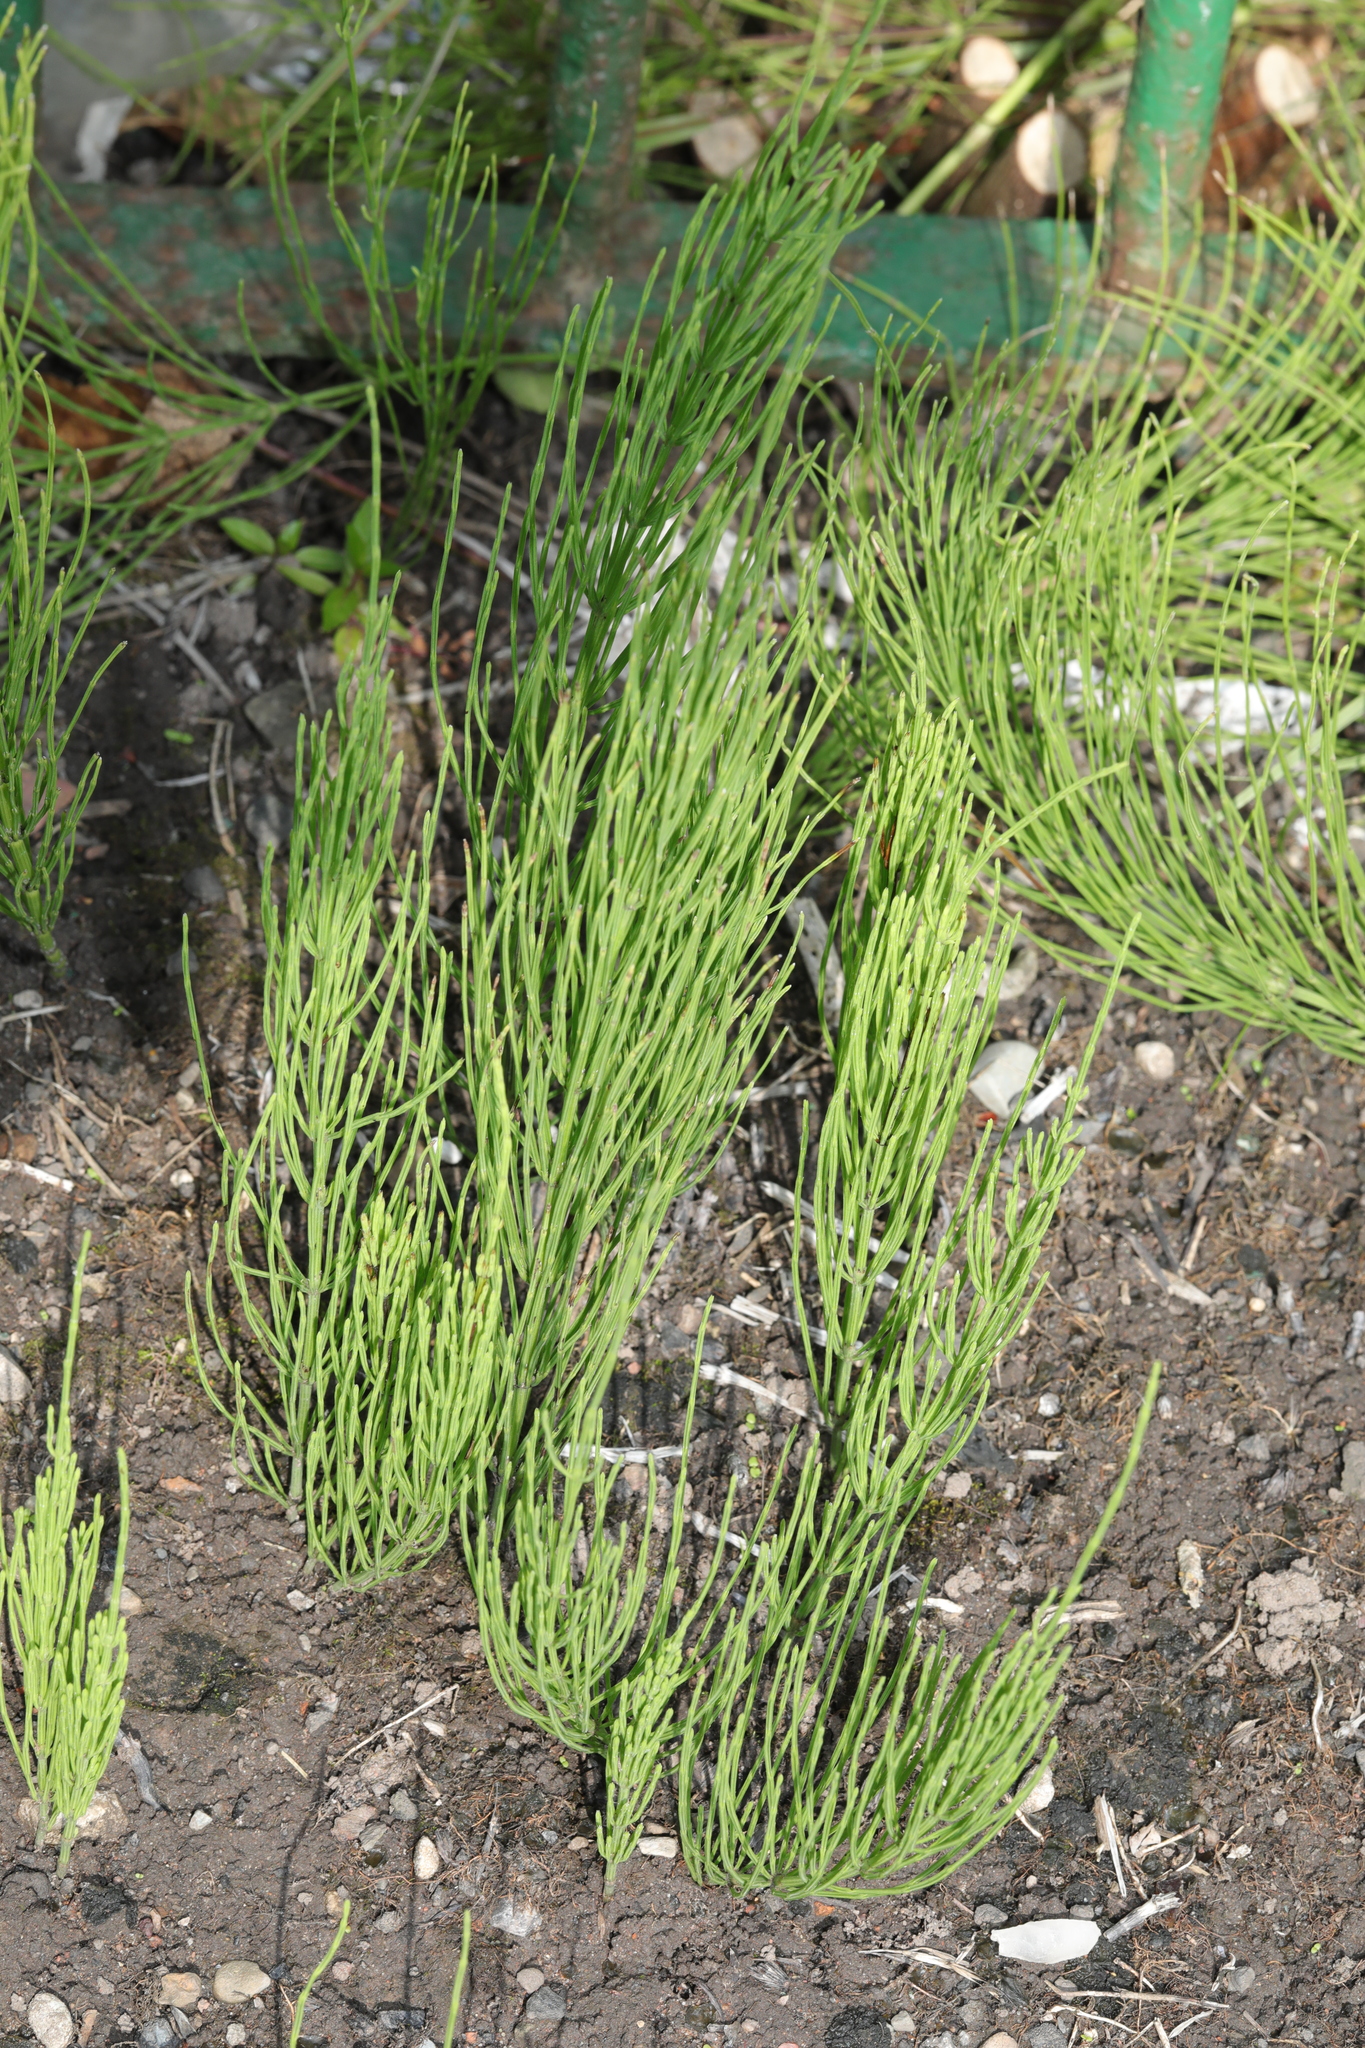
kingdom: Plantae
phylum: Tracheophyta
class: Polypodiopsida
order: Equisetales
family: Equisetaceae
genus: Equisetum
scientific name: Equisetum arvense
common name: Field horsetail
